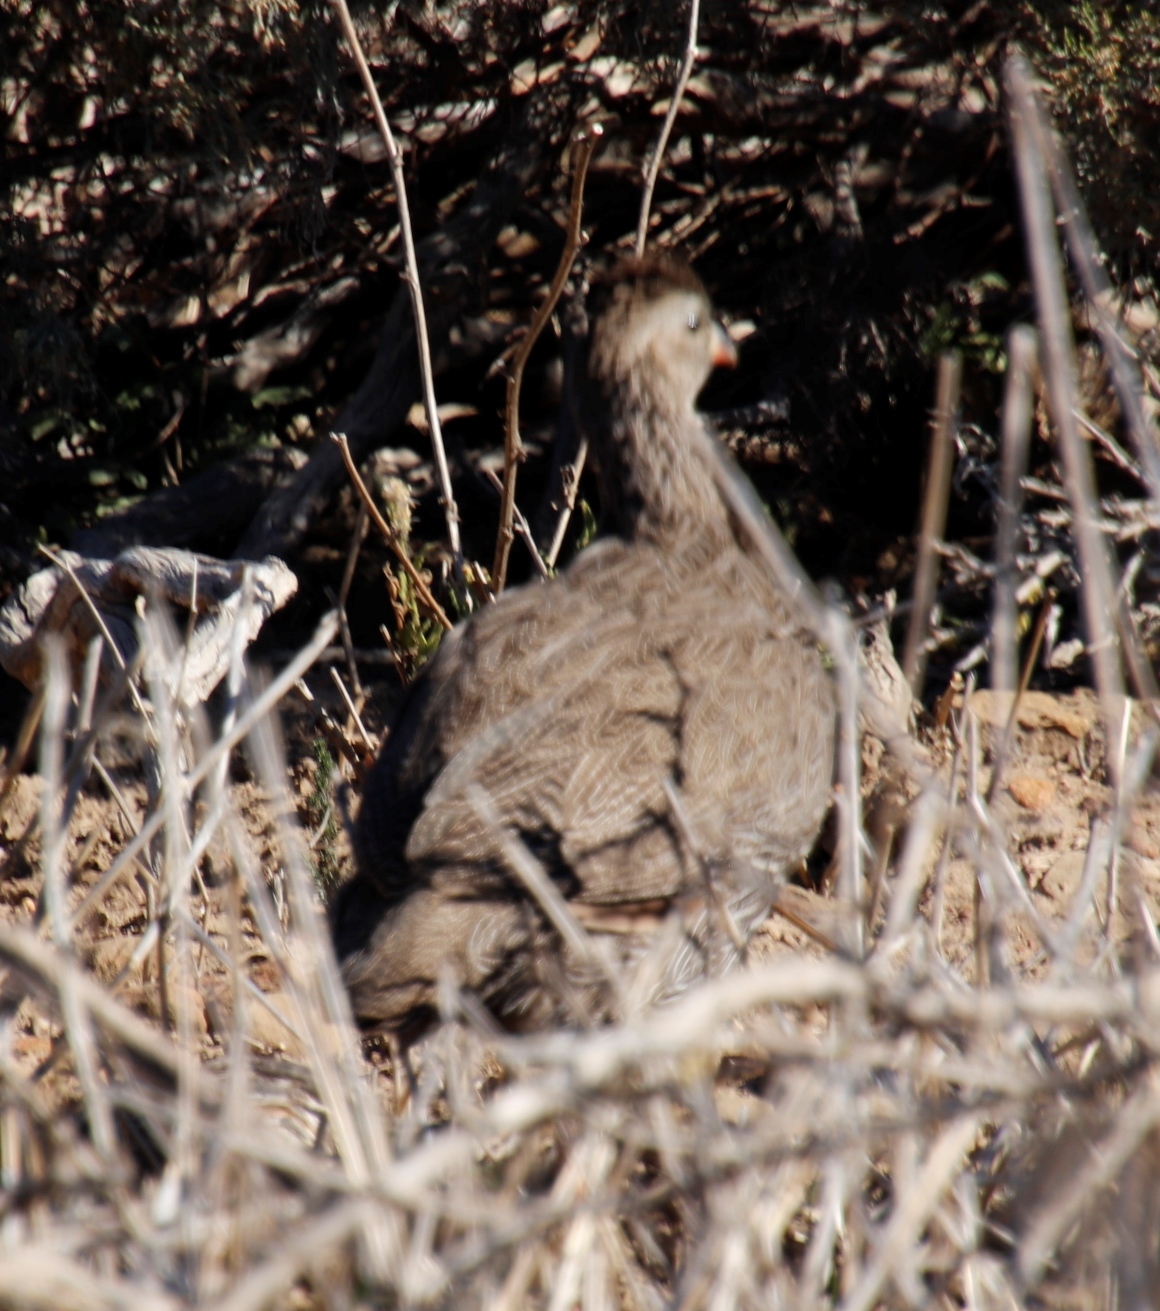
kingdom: Animalia
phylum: Chordata
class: Aves
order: Galliformes
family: Phasianidae
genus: Pternistis
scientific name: Pternistis capensis
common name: Cape spurfowl
